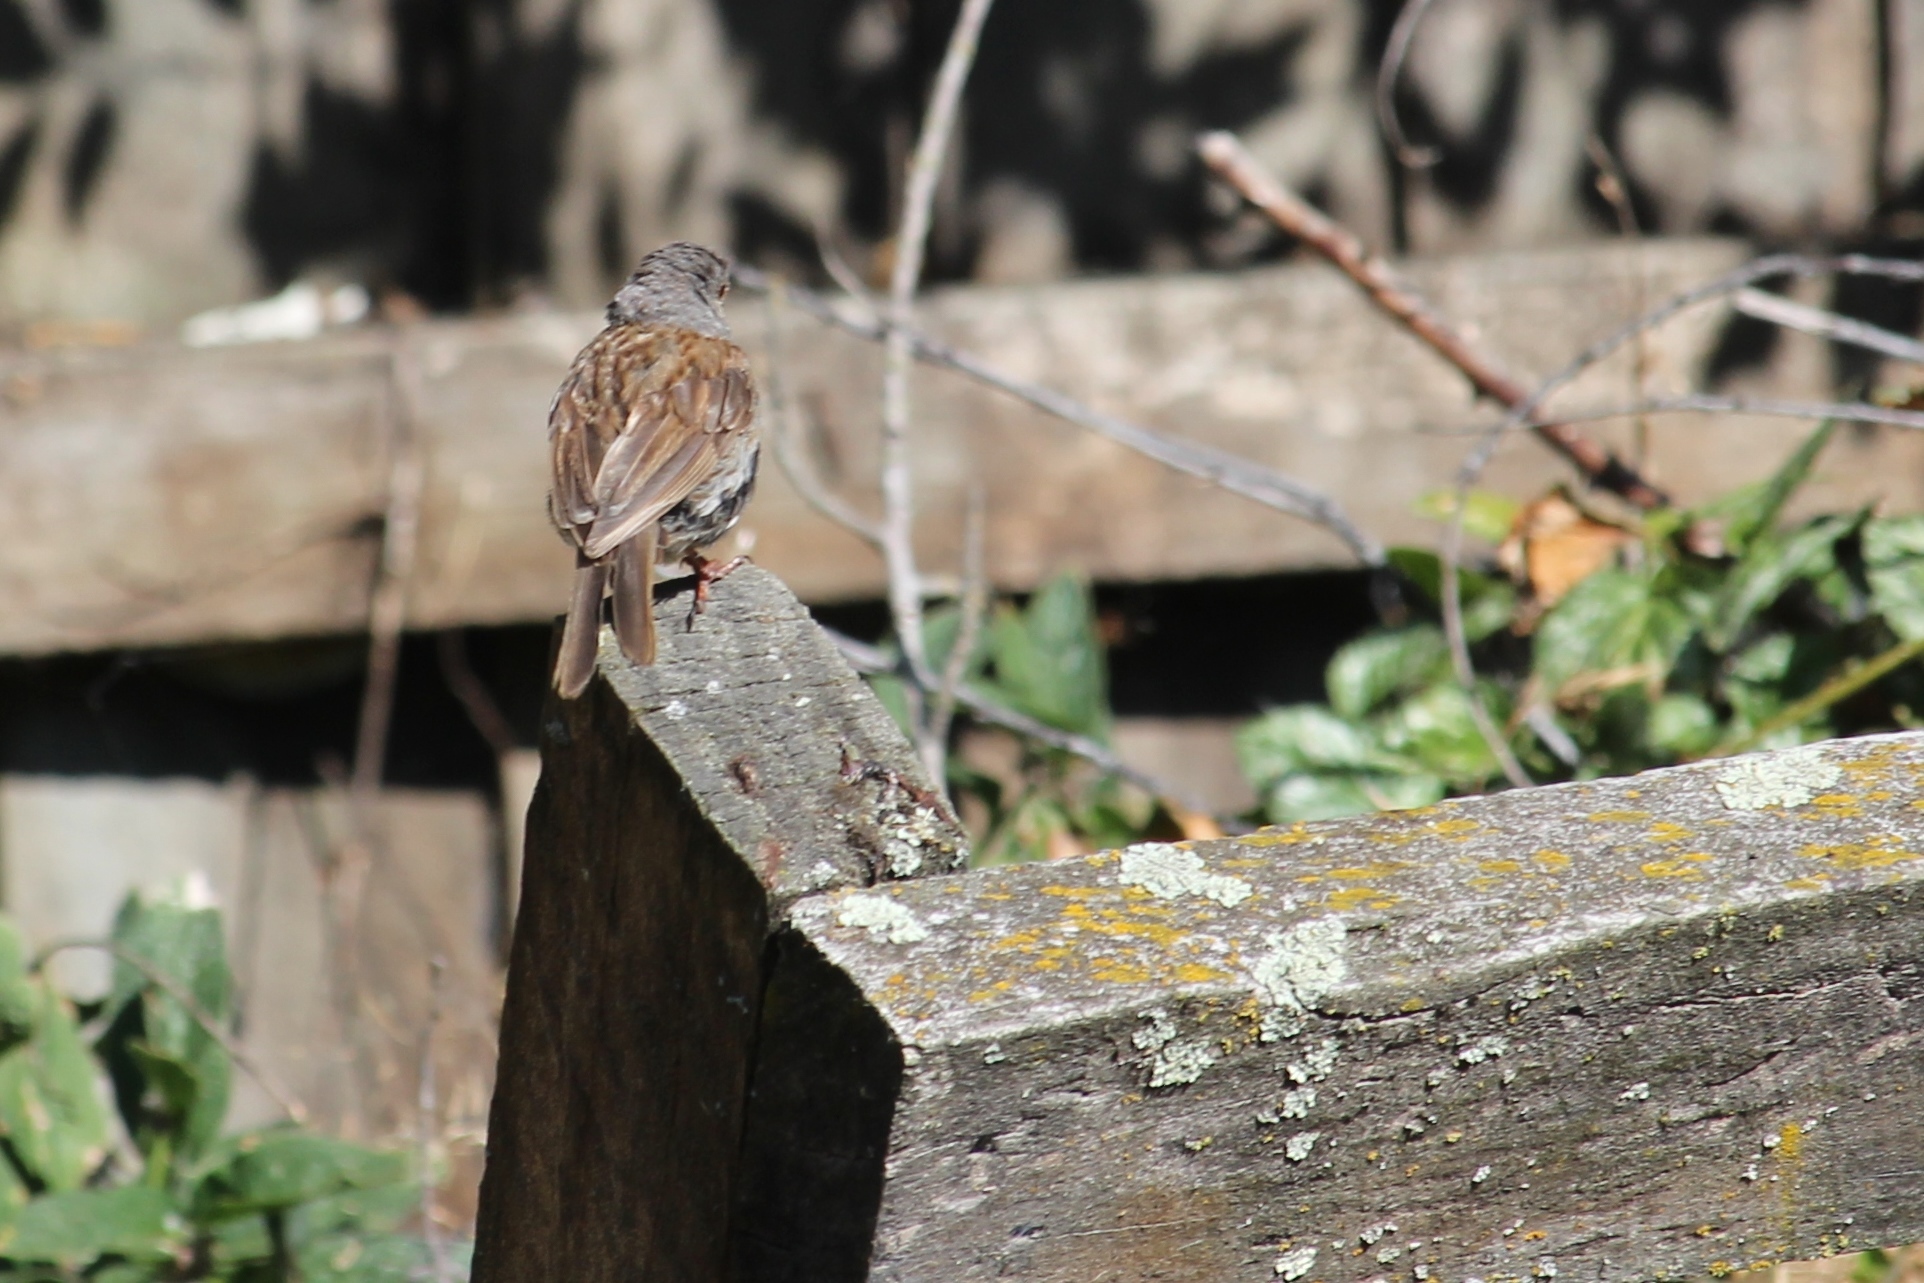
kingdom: Animalia
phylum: Chordata
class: Aves
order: Passeriformes
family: Prunellidae
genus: Prunella
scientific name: Prunella modularis
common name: Dunnock
